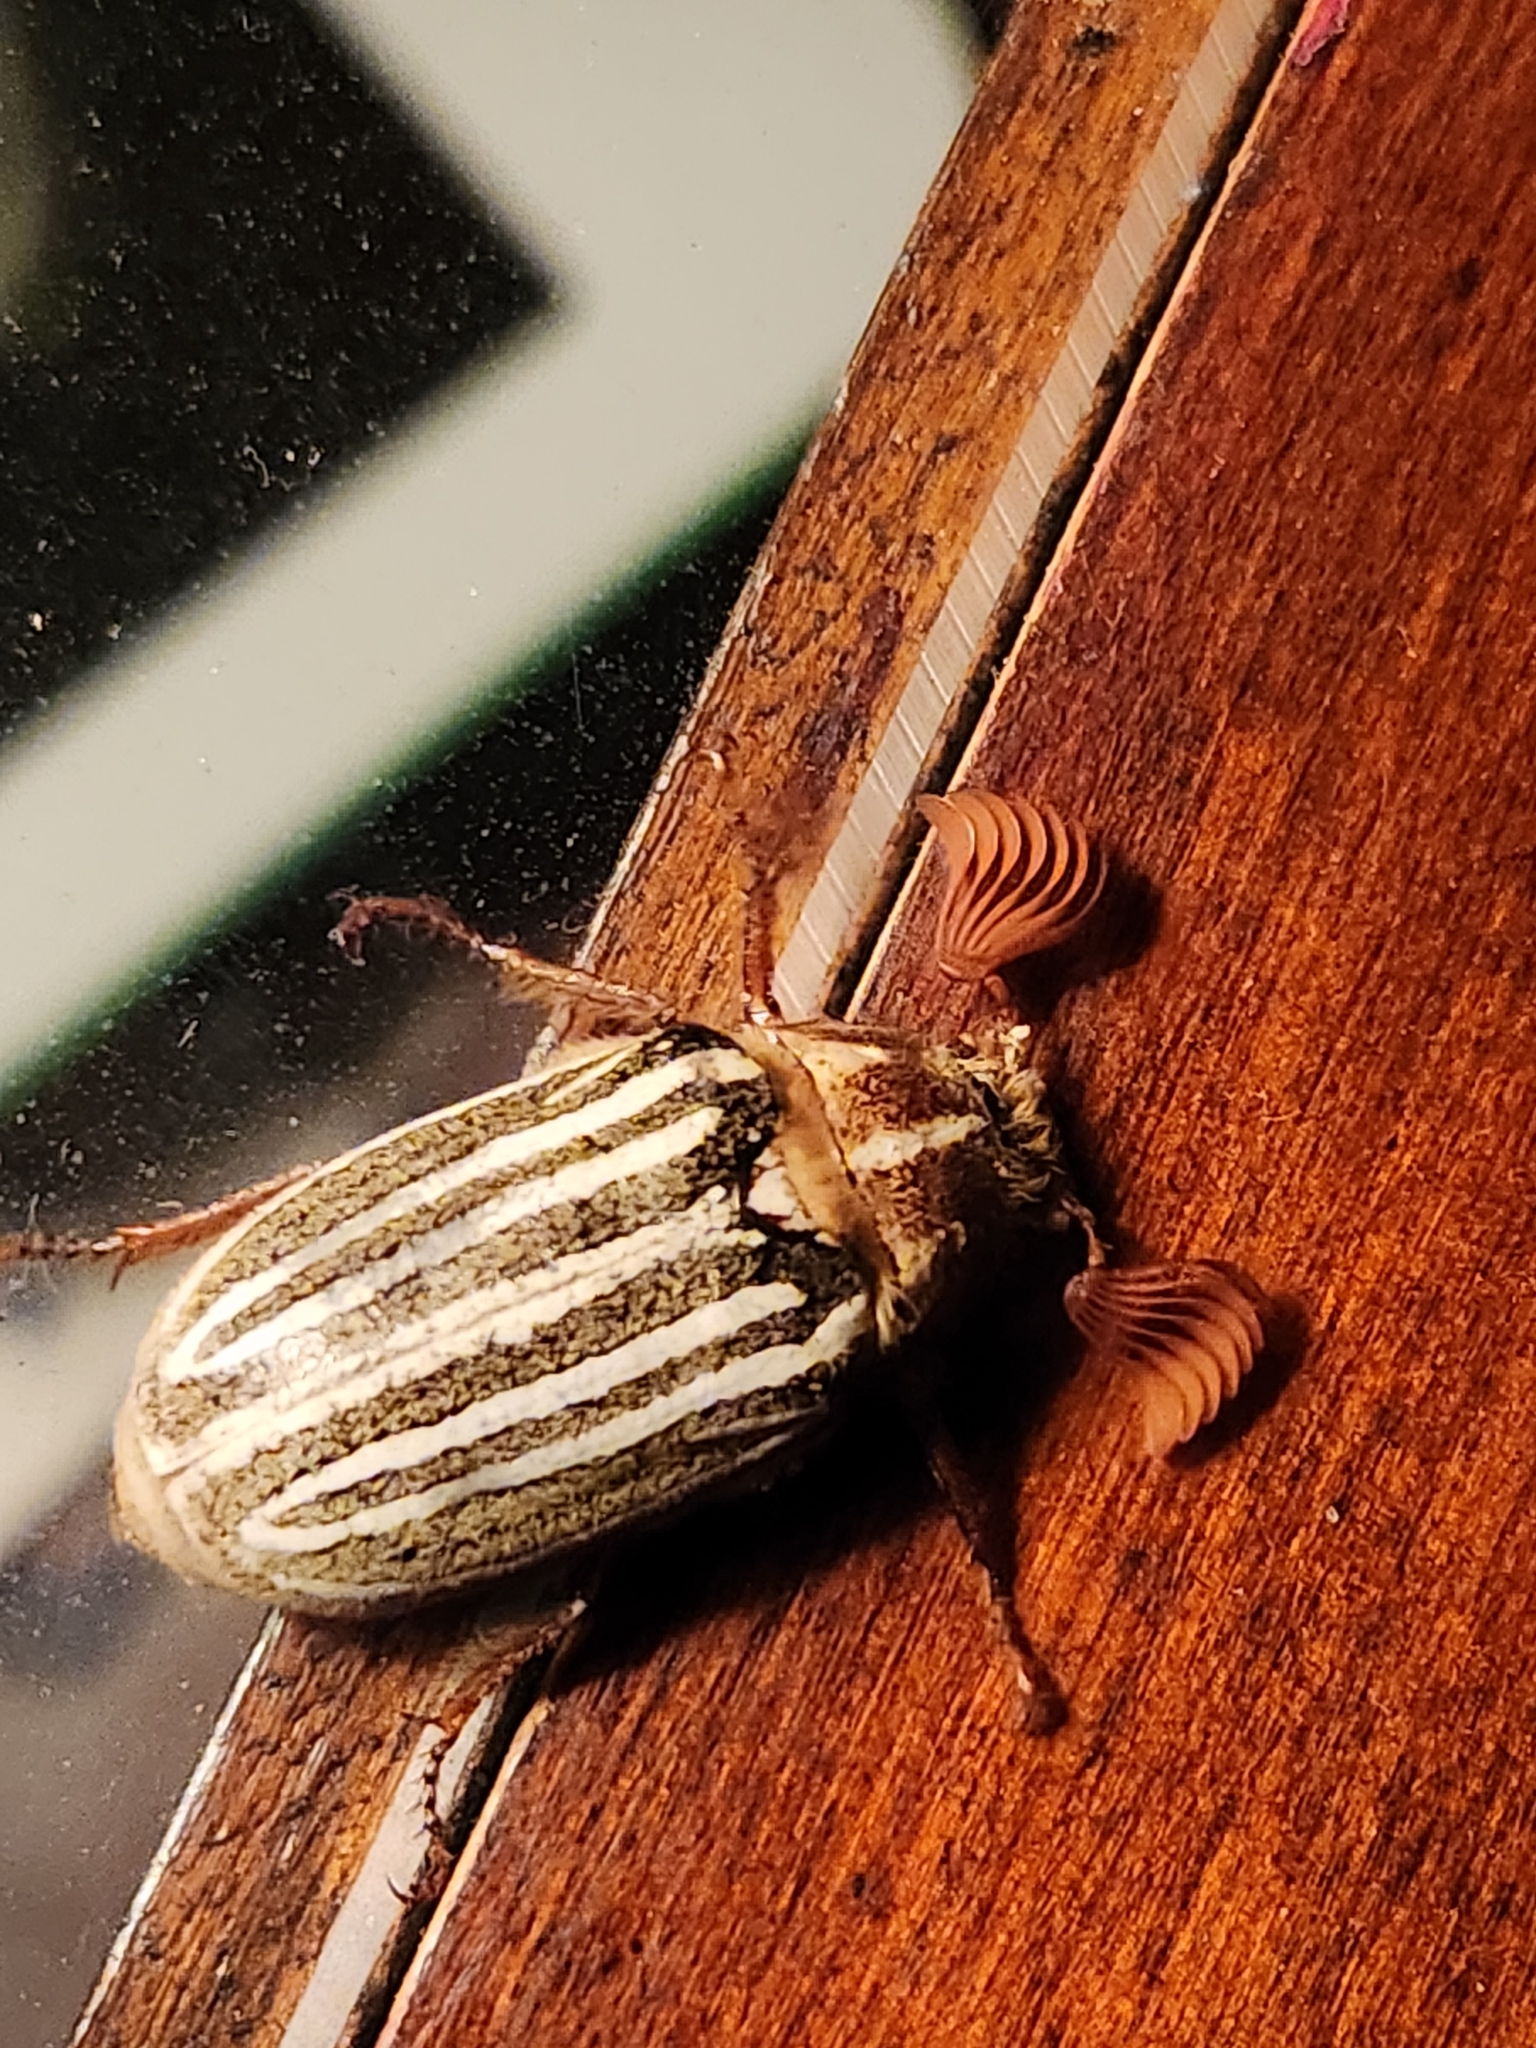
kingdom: Animalia
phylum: Arthropoda
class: Insecta
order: Coleoptera
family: Scarabaeidae
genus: Polyphylla
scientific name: Polyphylla decemlineata
